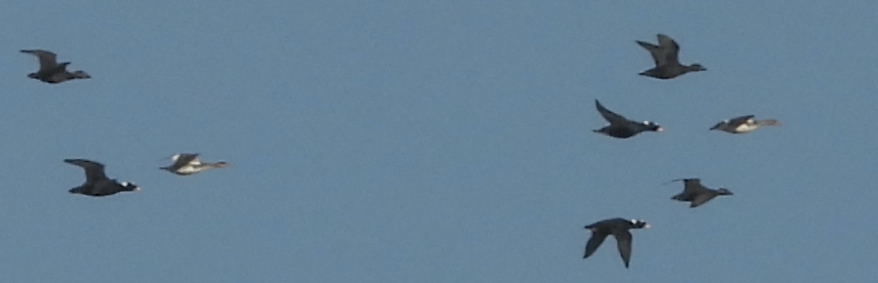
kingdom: Animalia
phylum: Chordata
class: Aves
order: Anseriformes
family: Anatidae
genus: Mergus
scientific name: Mergus serrator
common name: Red-breasted merganser
